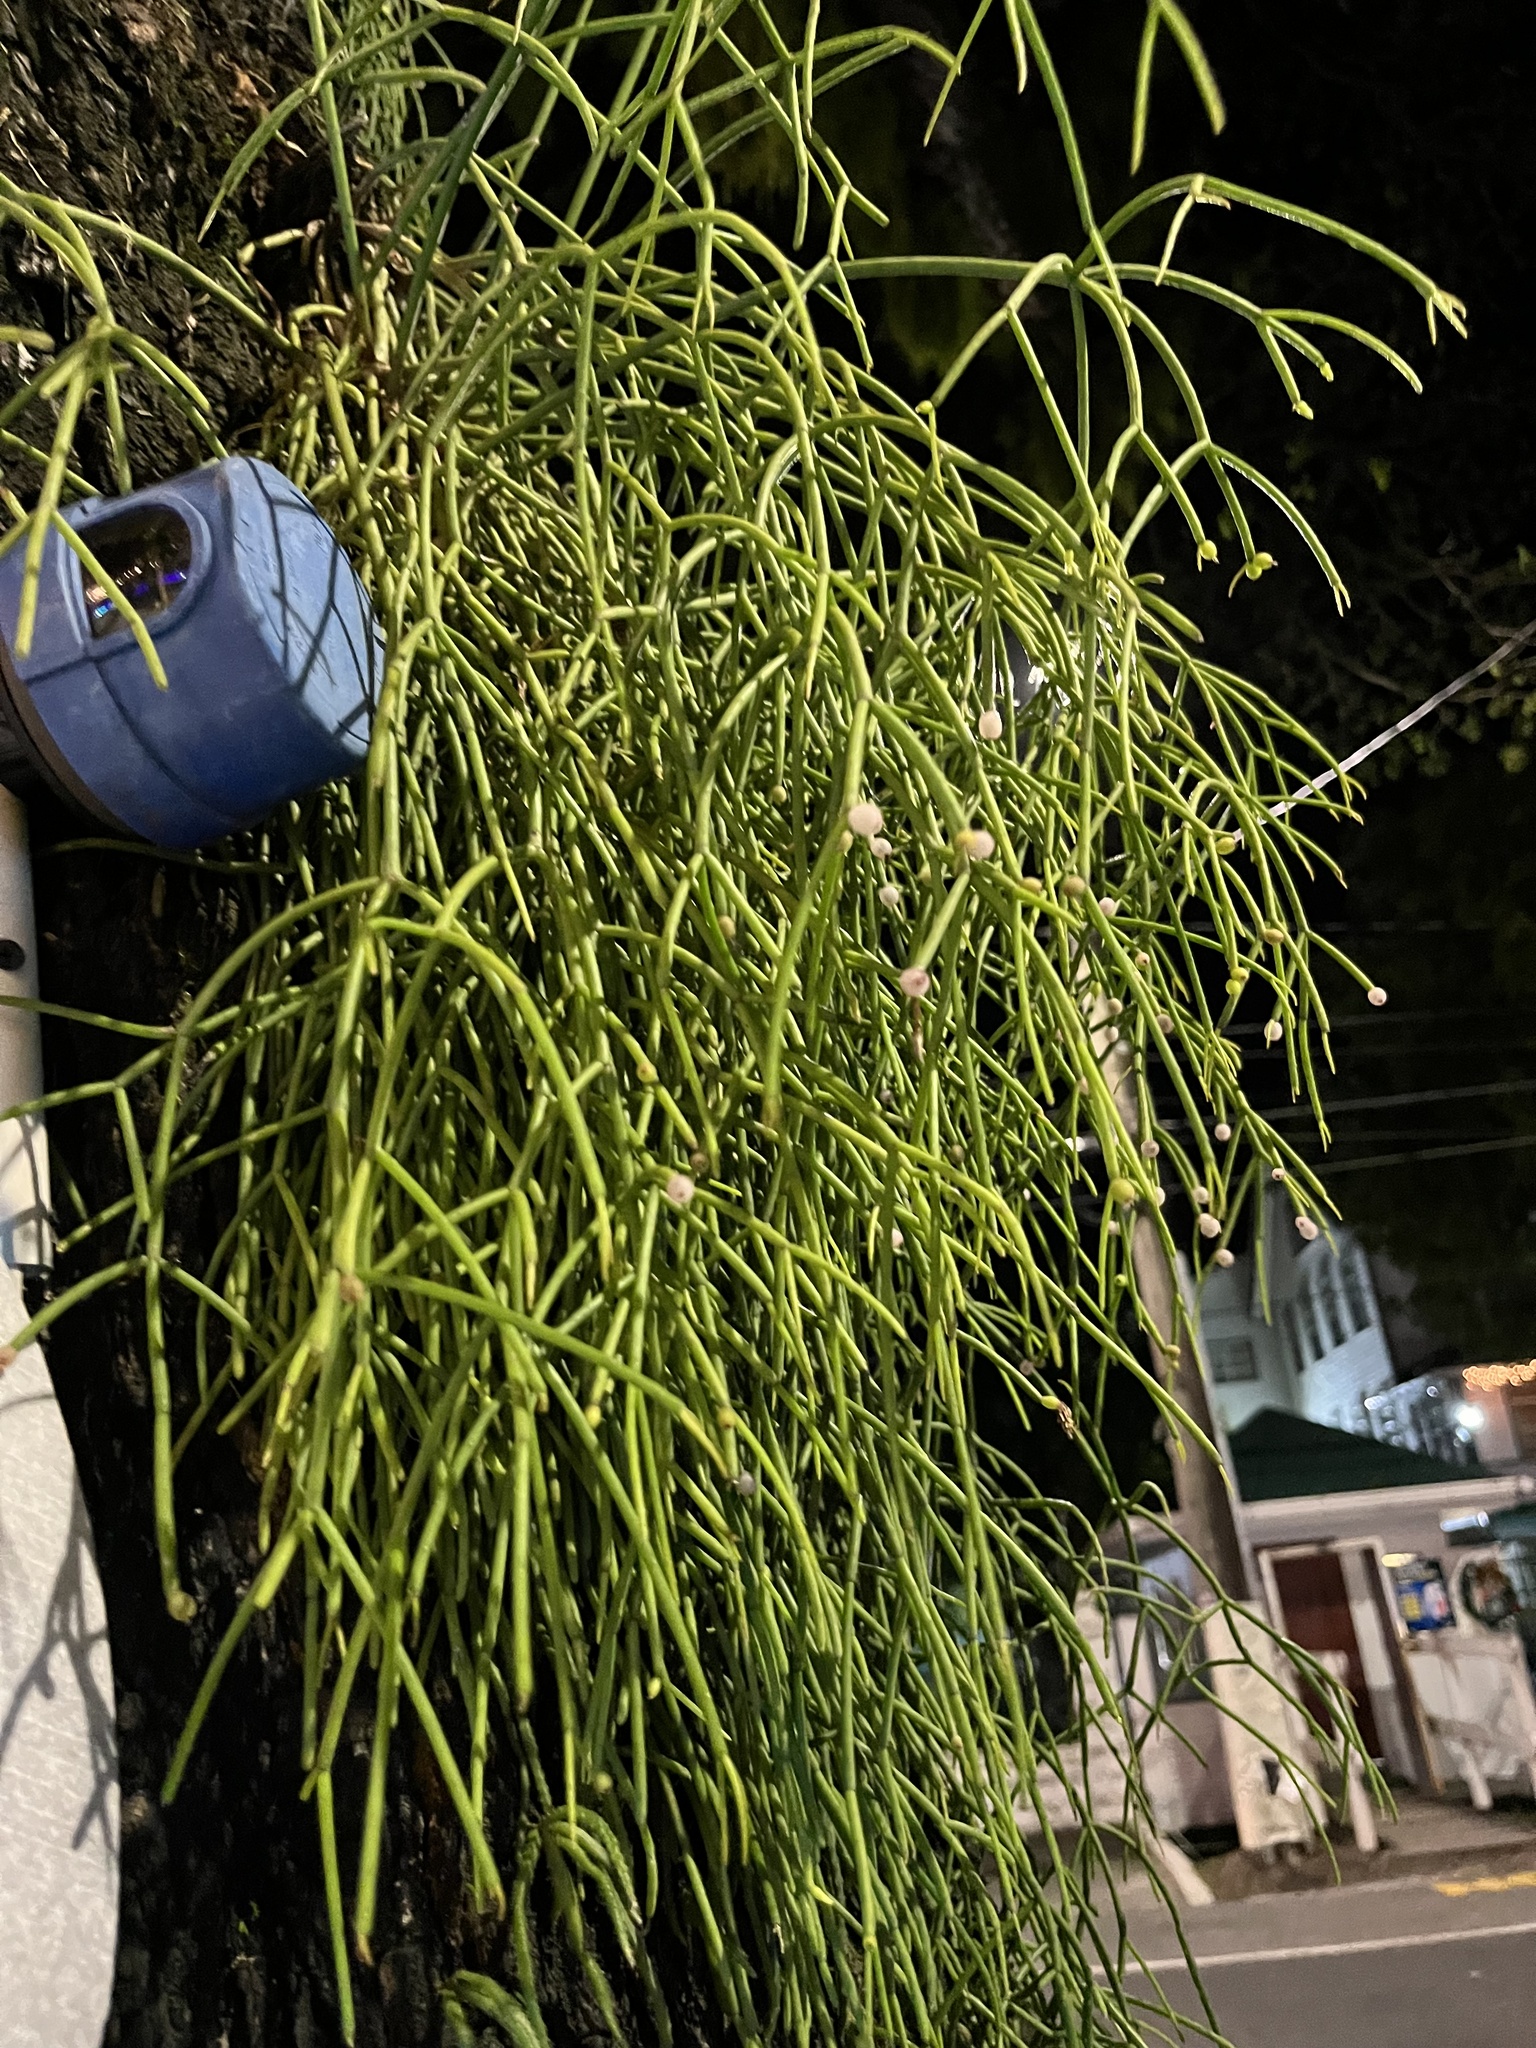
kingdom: Plantae
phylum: Tracheophyta
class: Magnoliopsida
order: Caryophyllales
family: Cactaceae
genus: Rhipsalis
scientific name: Rhipsalis baccifera
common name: Mistletoe cactus
